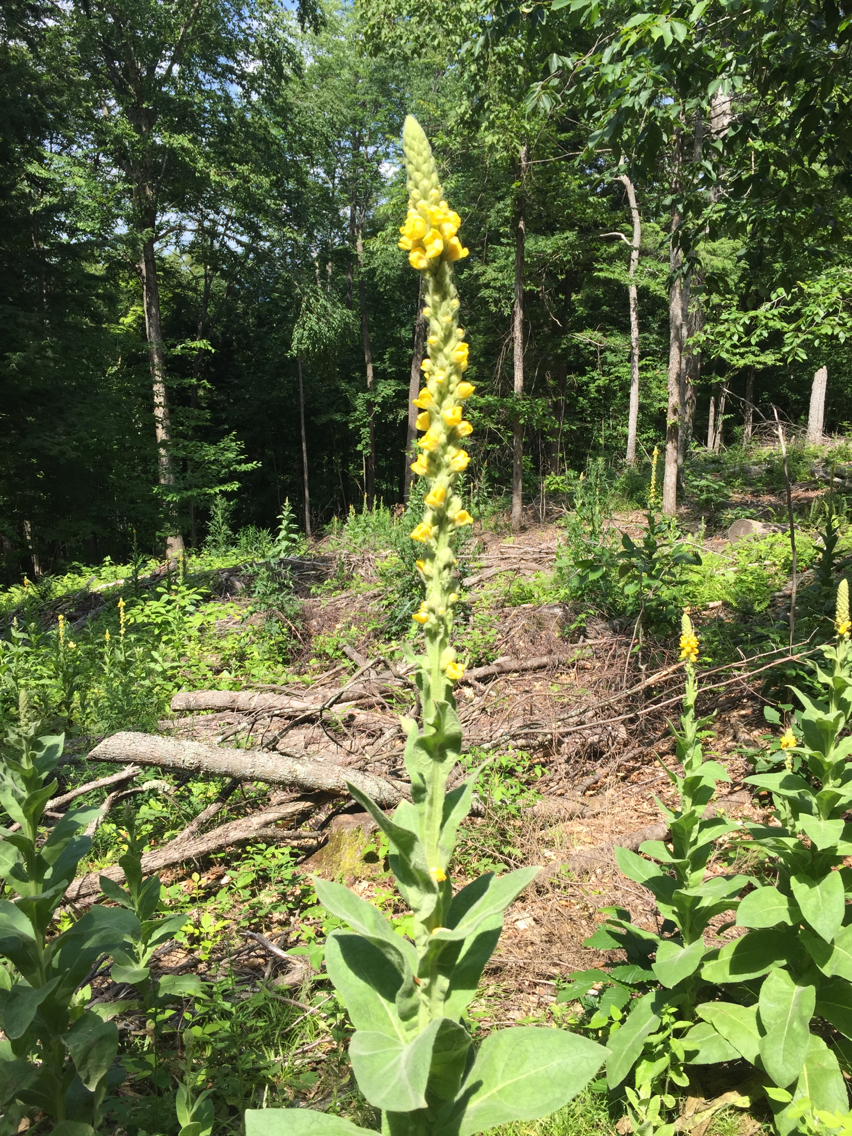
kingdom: Plantae
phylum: Tracheophyta
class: Magnoliopsida
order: Lamiales
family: Scrophulariaceae
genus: Verbascum
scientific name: Verbascum thapsus
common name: Common mullein
